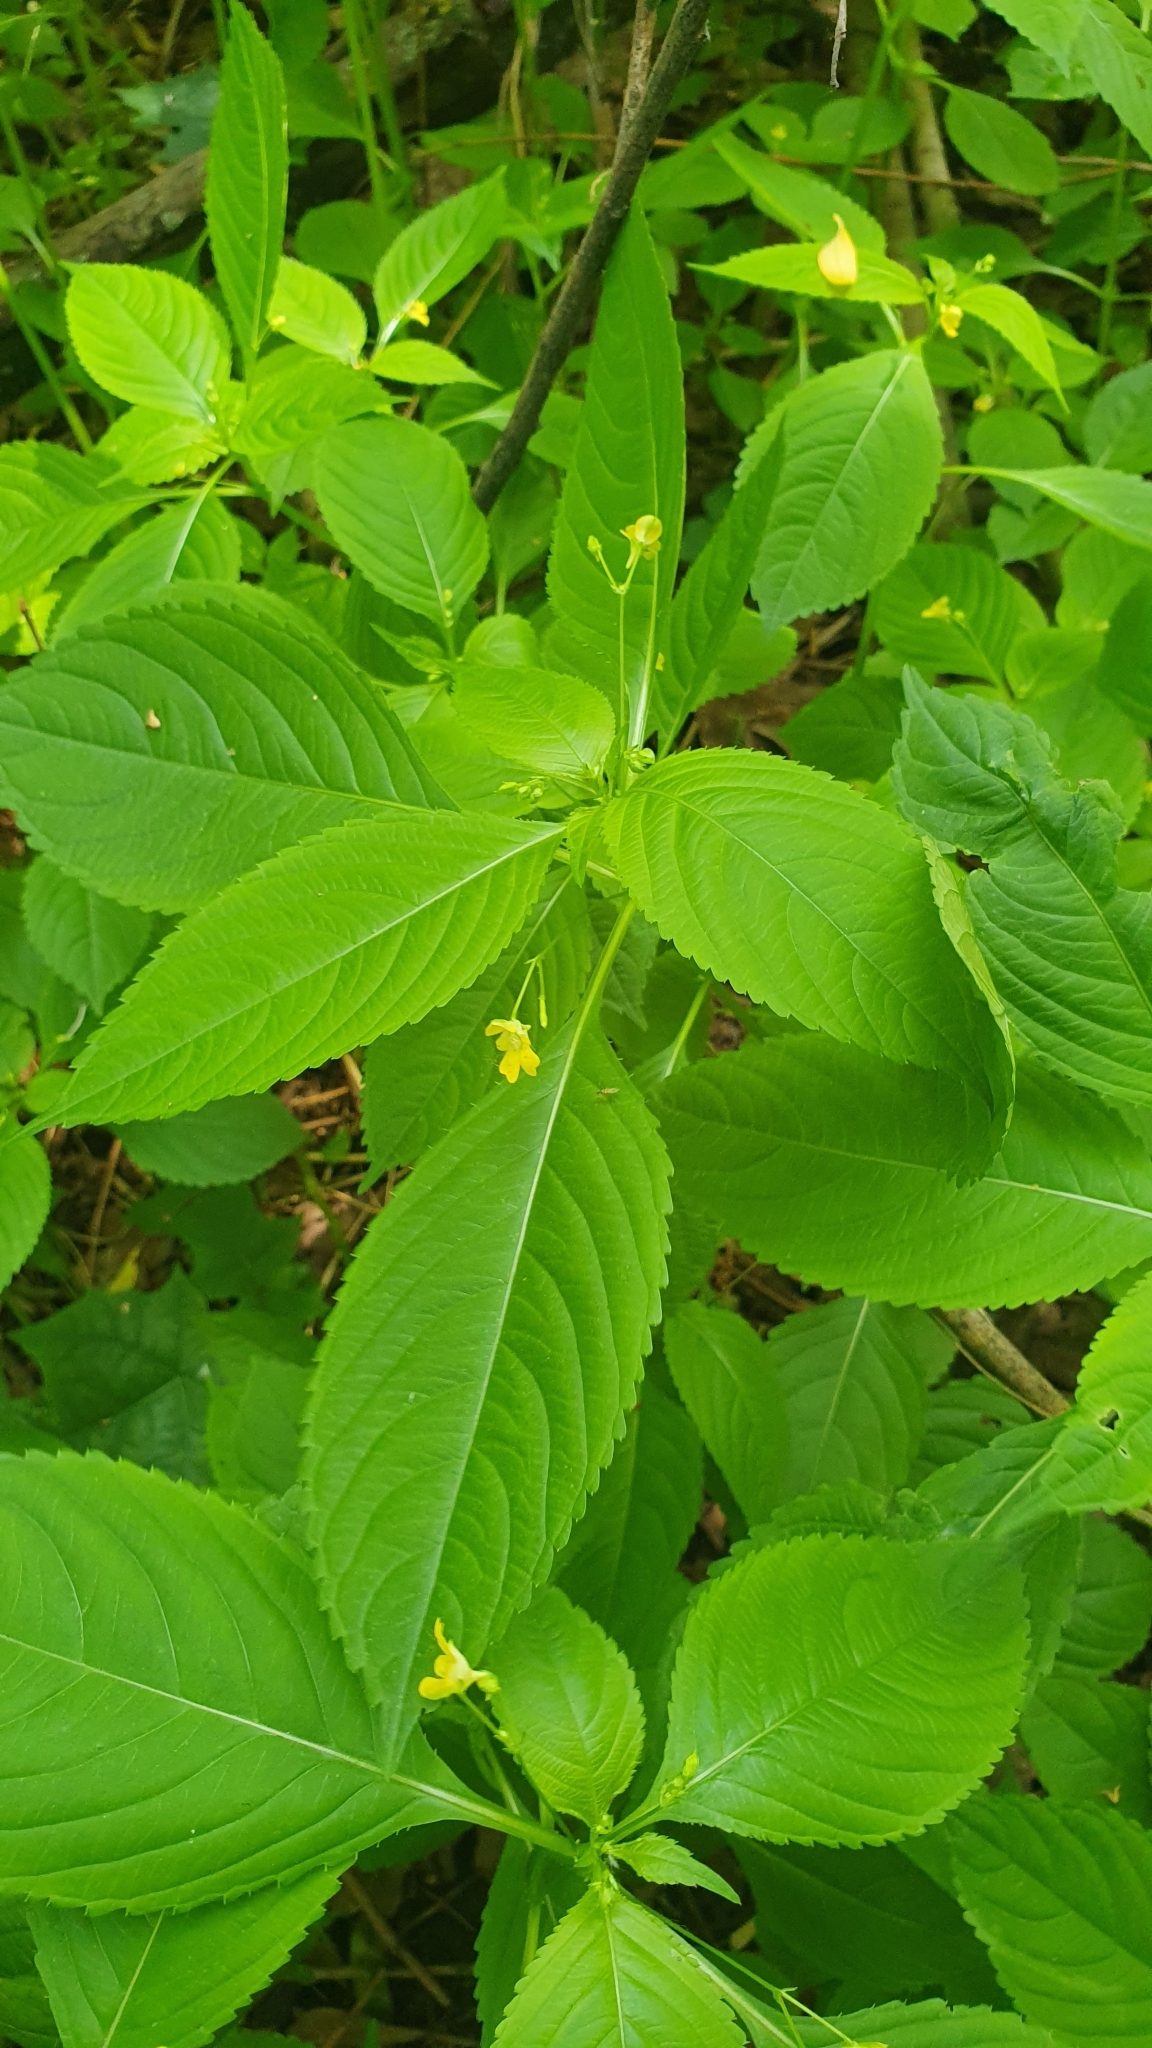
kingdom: Plantae
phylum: Tracheophyta
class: Magnoliopsida
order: Ericales
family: Balsaminaceae
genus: Impatiens
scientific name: Impatiens parviflora
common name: Small balsam
